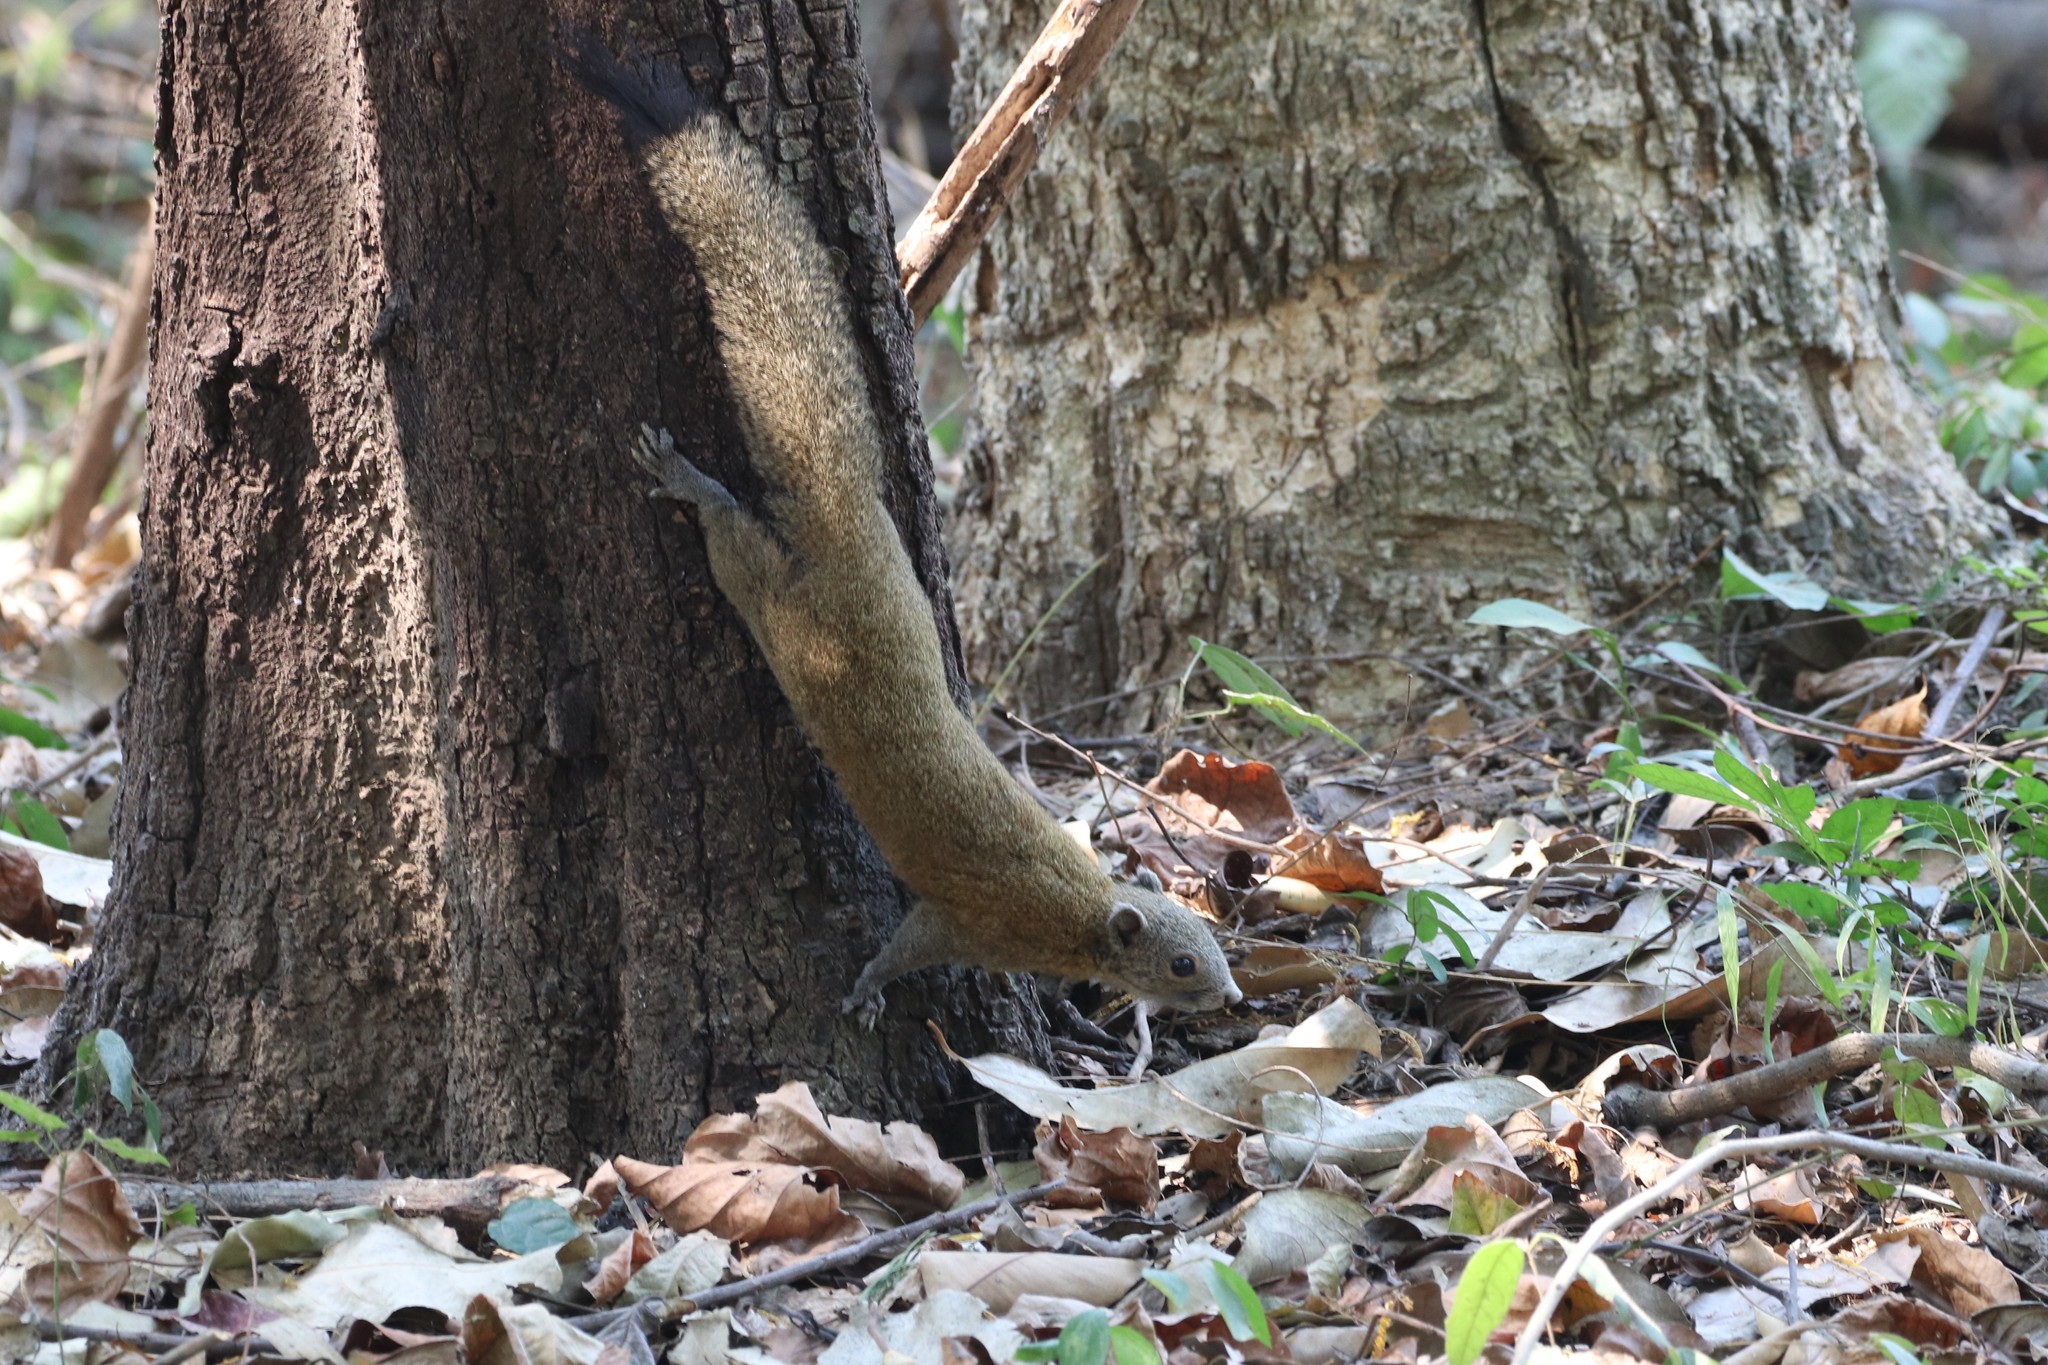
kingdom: Animalia
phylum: Chordata
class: Mammalia
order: Rodentia
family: Sciuridae
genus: Callosciurus
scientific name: Callosciurus caniceps
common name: Gray-bellied squirrel
